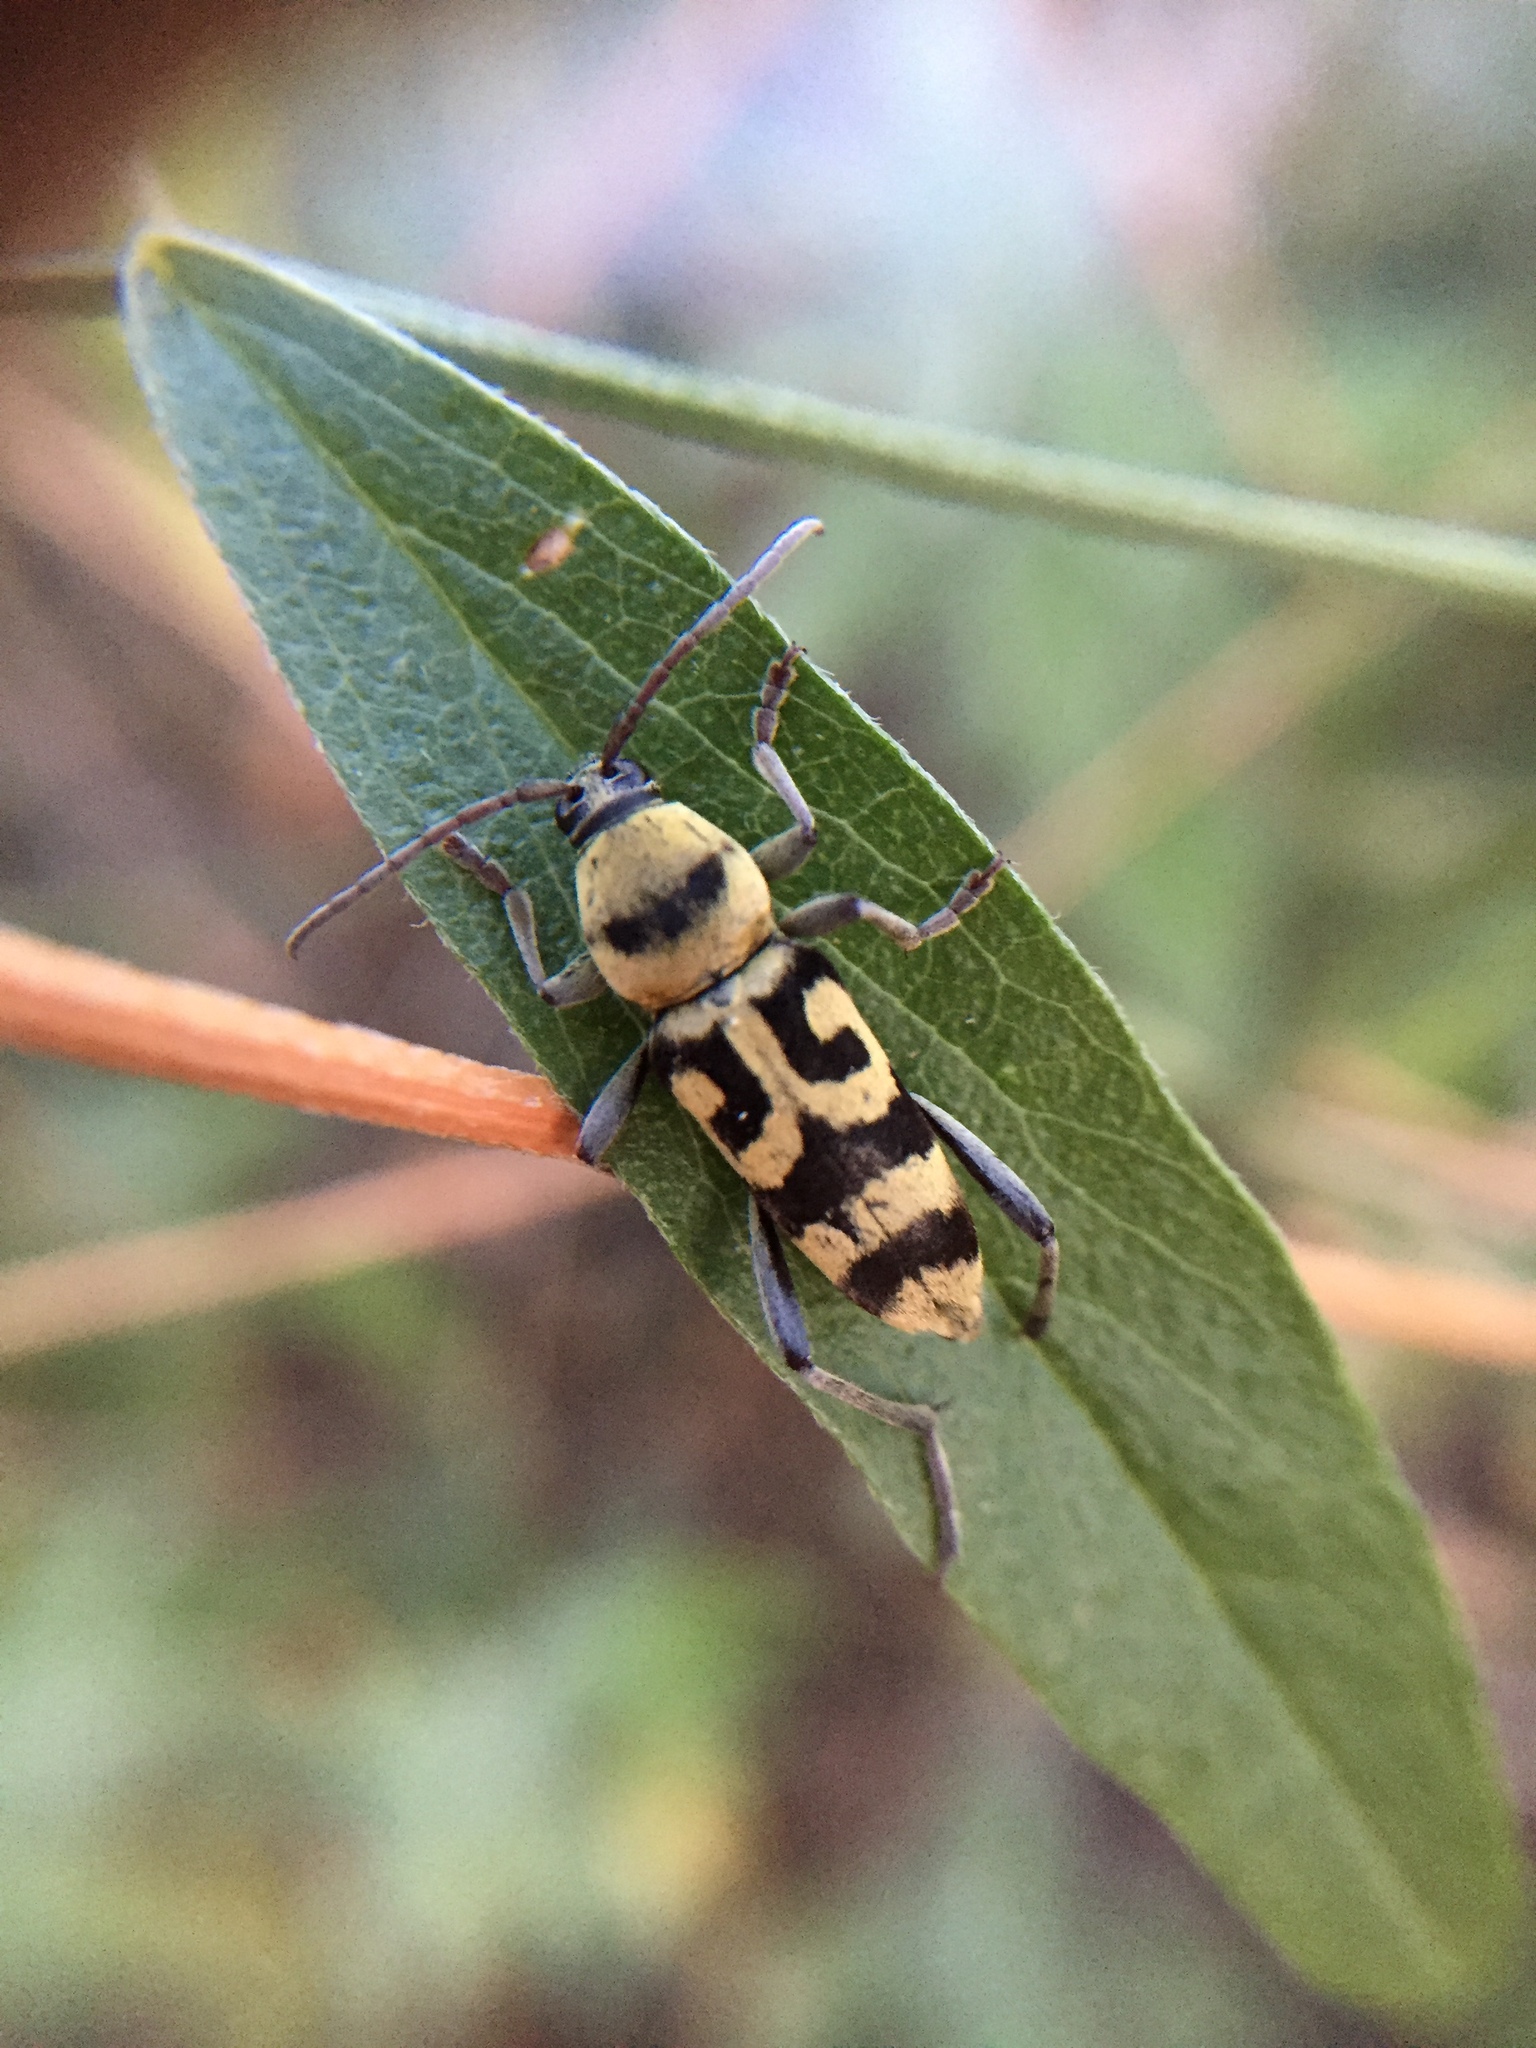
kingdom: Animalia
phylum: Arthropoda
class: Insecta
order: Coleoptera
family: Cerambycidae
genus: Chlorophorus
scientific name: Chlorophorus varius
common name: Grape wood borer
